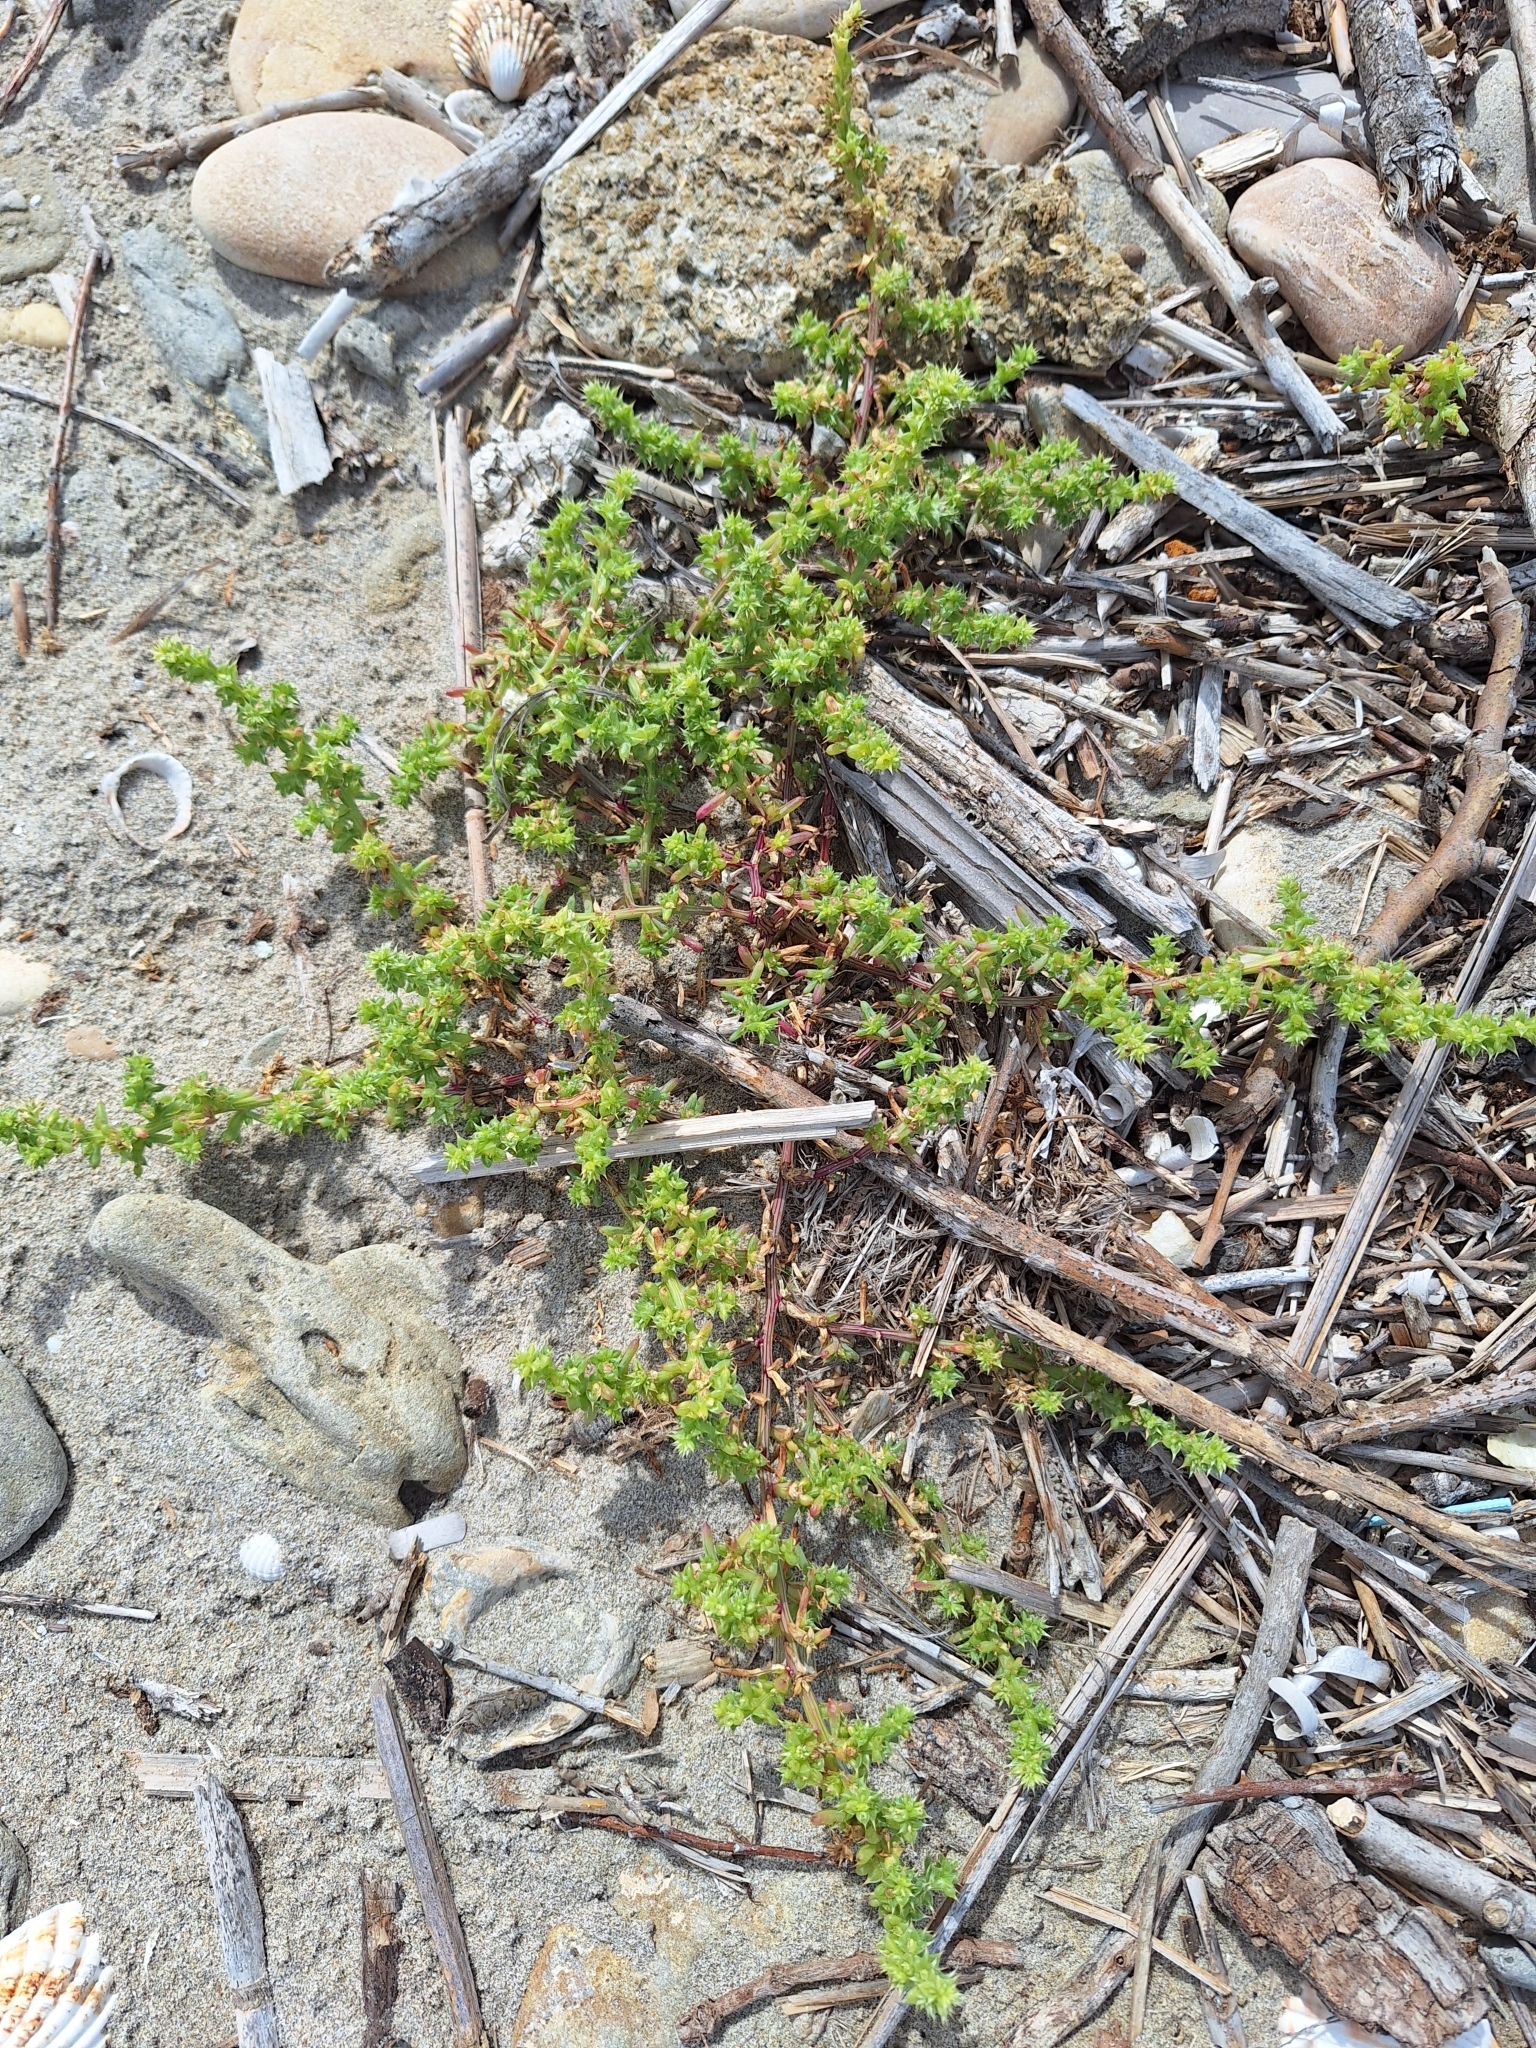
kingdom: Plantae
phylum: Tracheophyta
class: Magnoliopsida
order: Caryophyllales
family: Amaranthaceae
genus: Salsola
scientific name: Salsola kali
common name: Saltwort
